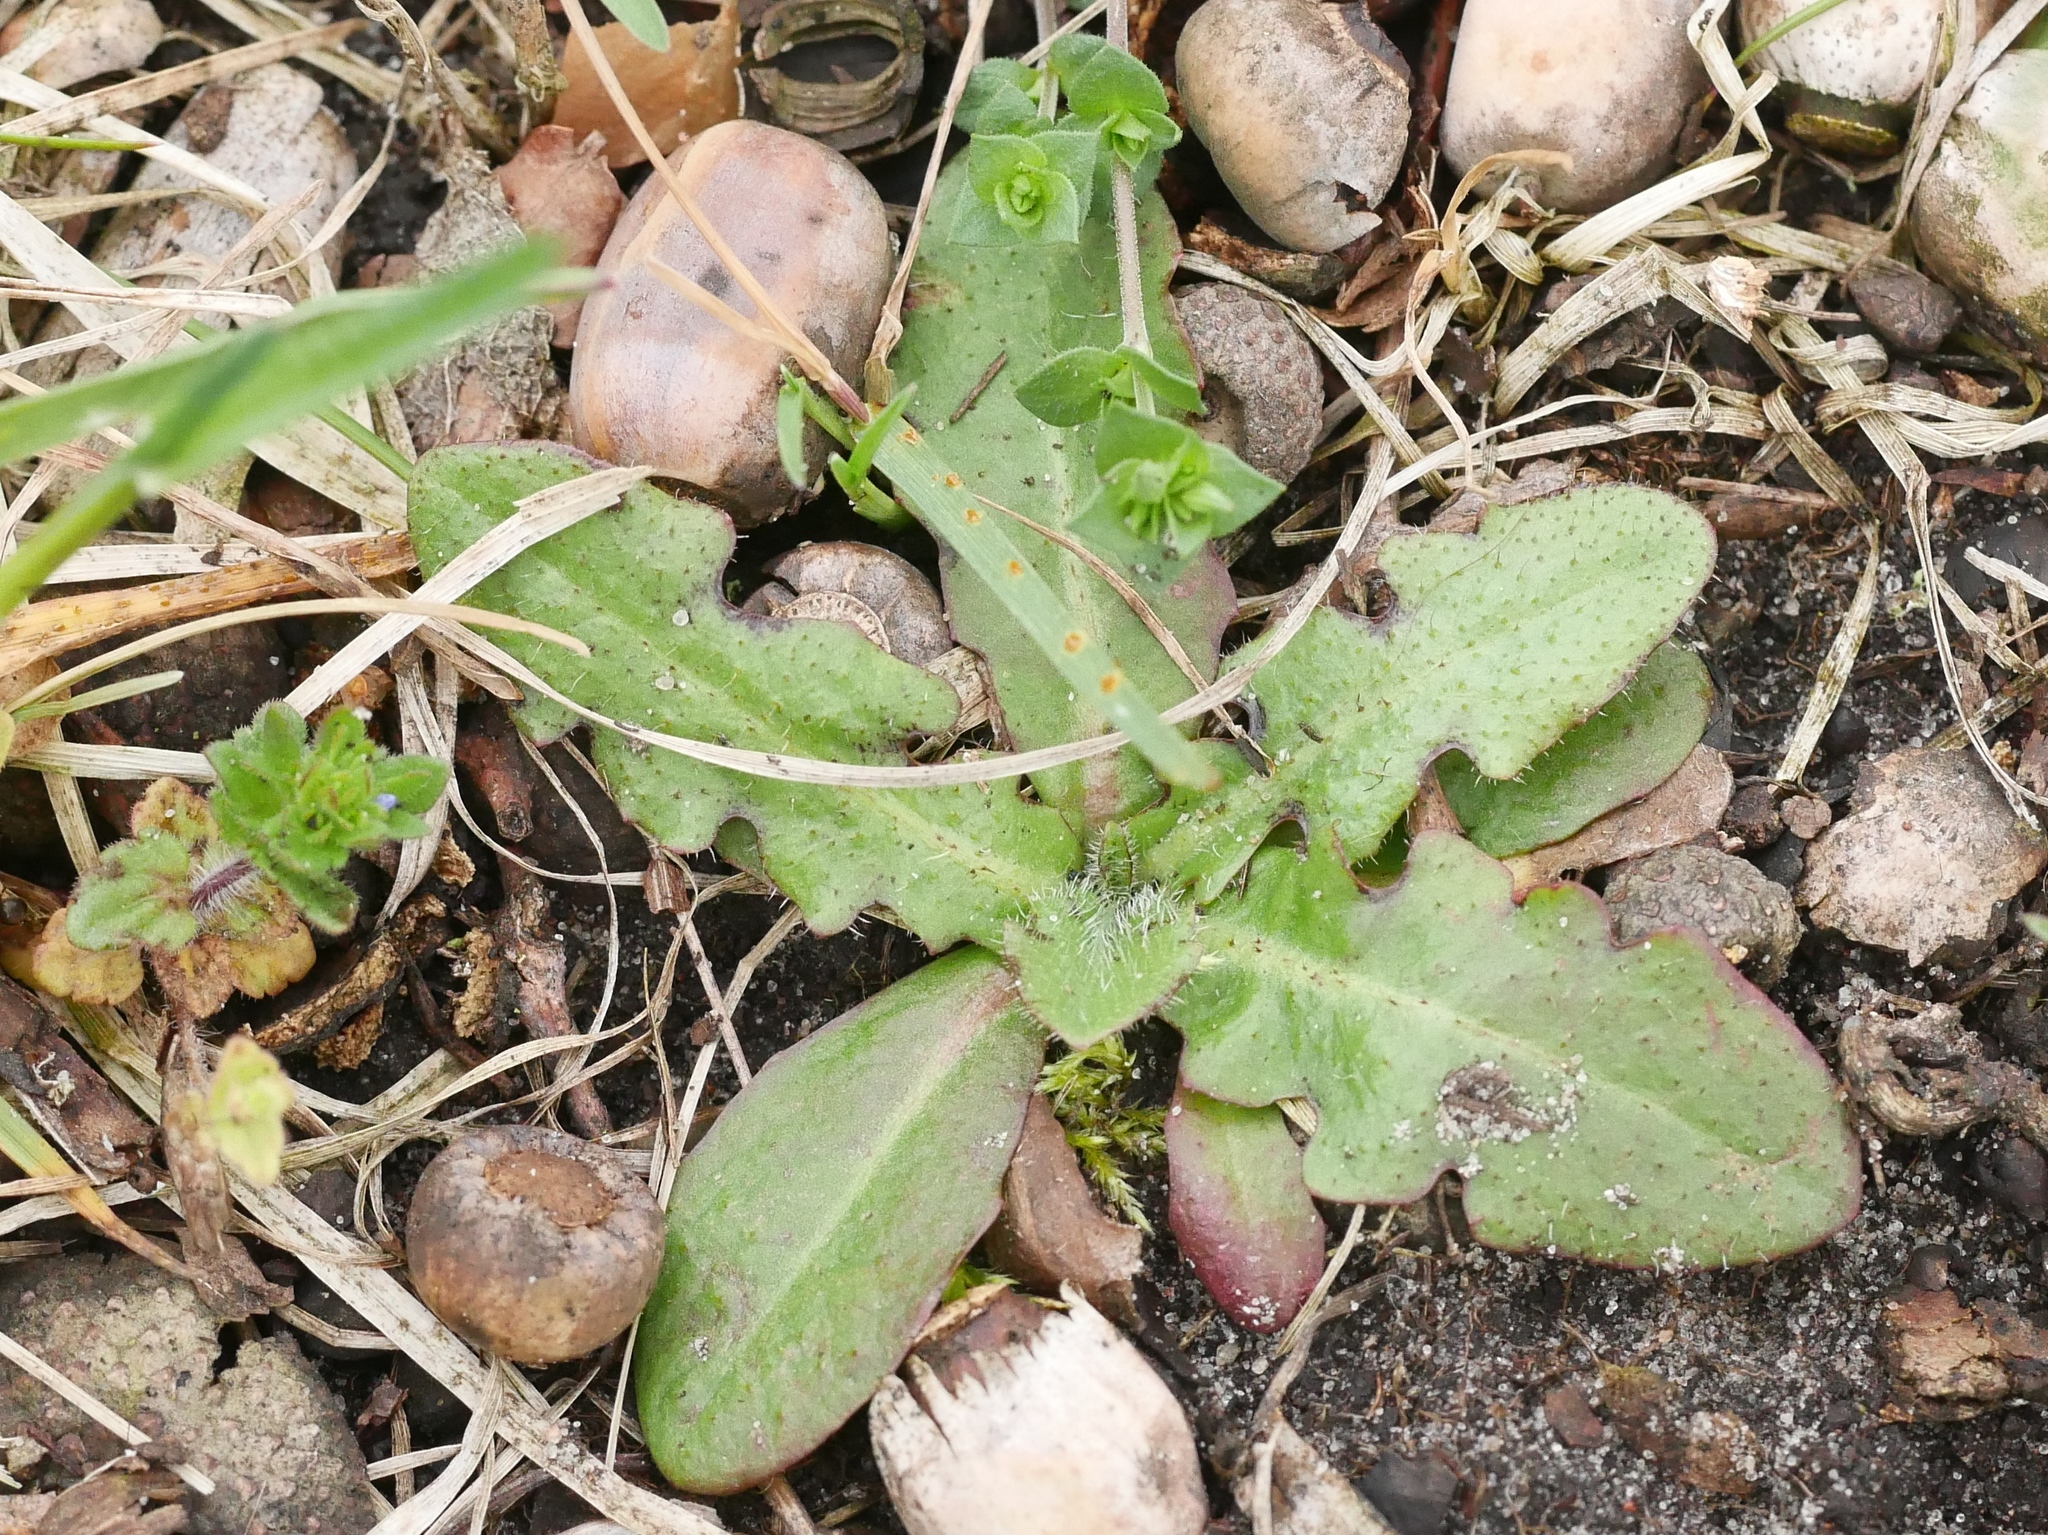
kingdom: Plantae
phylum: Tracheophyta
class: Magnoliopsida
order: Asterales
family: Asteraceae
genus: Hypochaeris
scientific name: Hypochaeris radicata
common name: Flatweed
